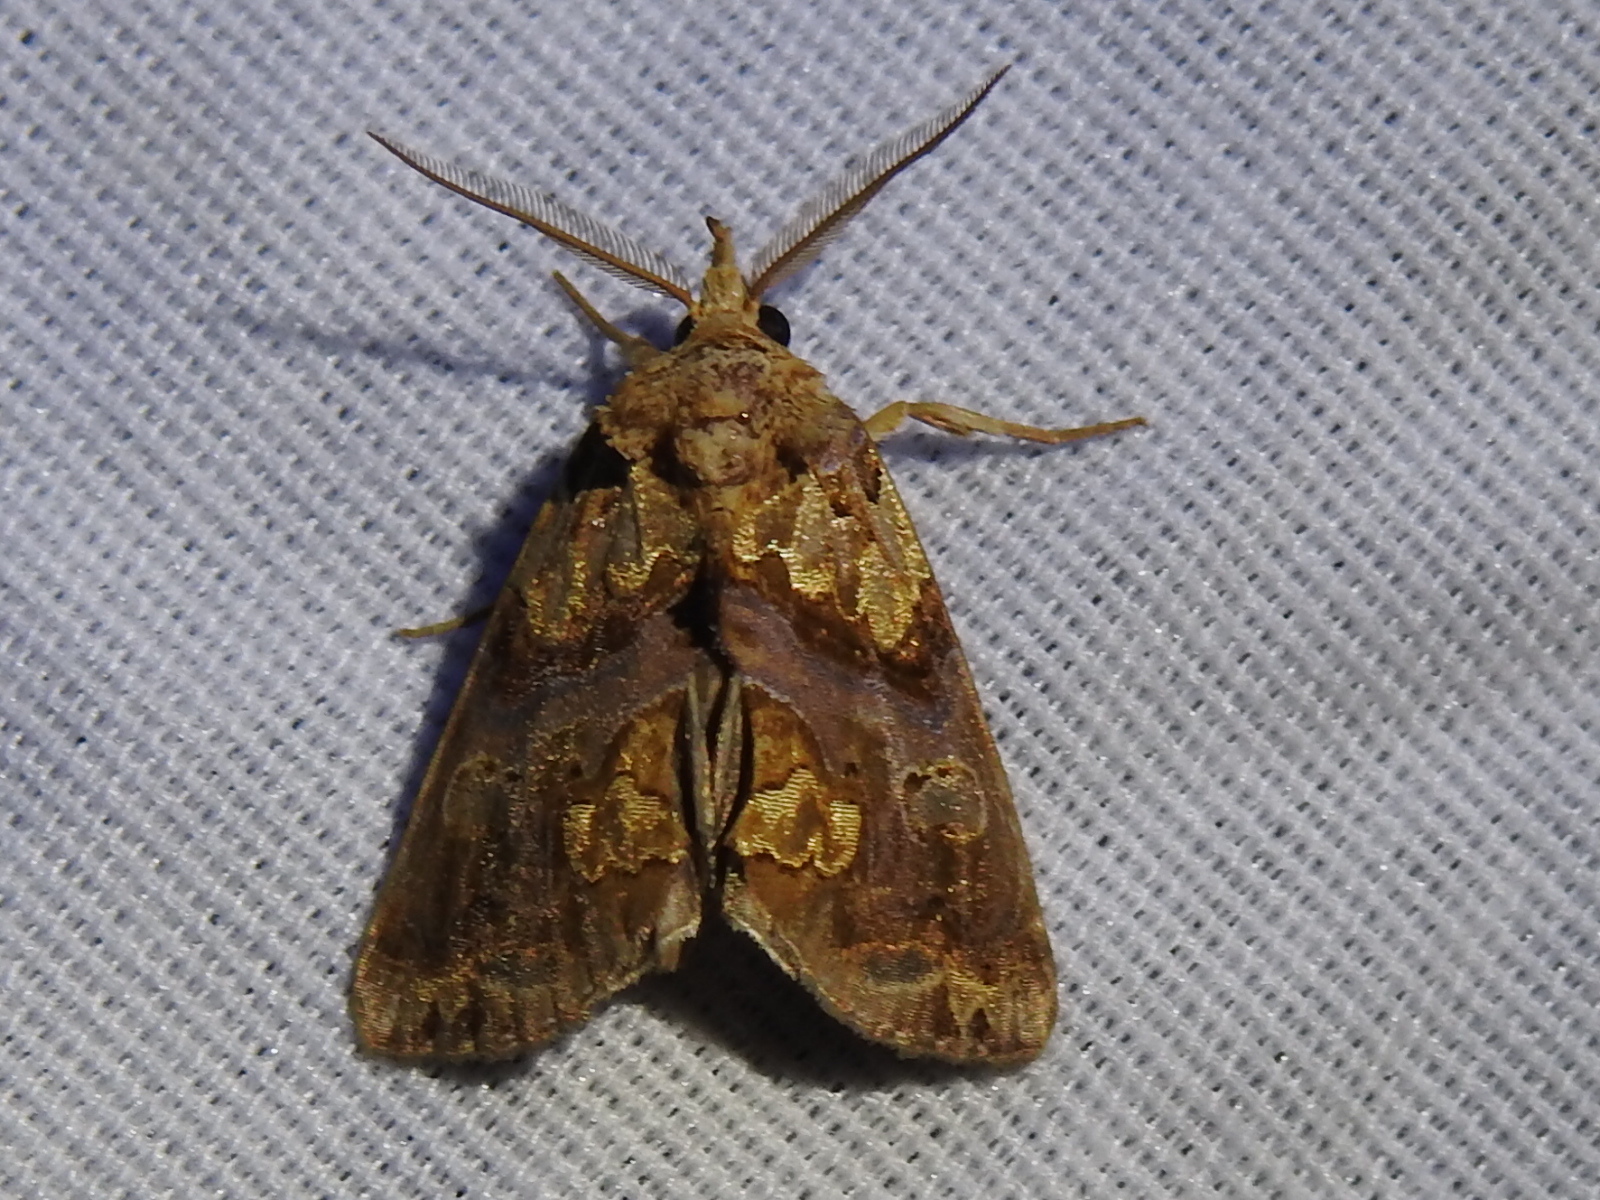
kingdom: Animalia
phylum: Arthropoda
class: Insecta
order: Lepidoptera
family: Erebidae
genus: Plusiodonta
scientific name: Plusiodonta compressipalpis
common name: Moonseed moth
